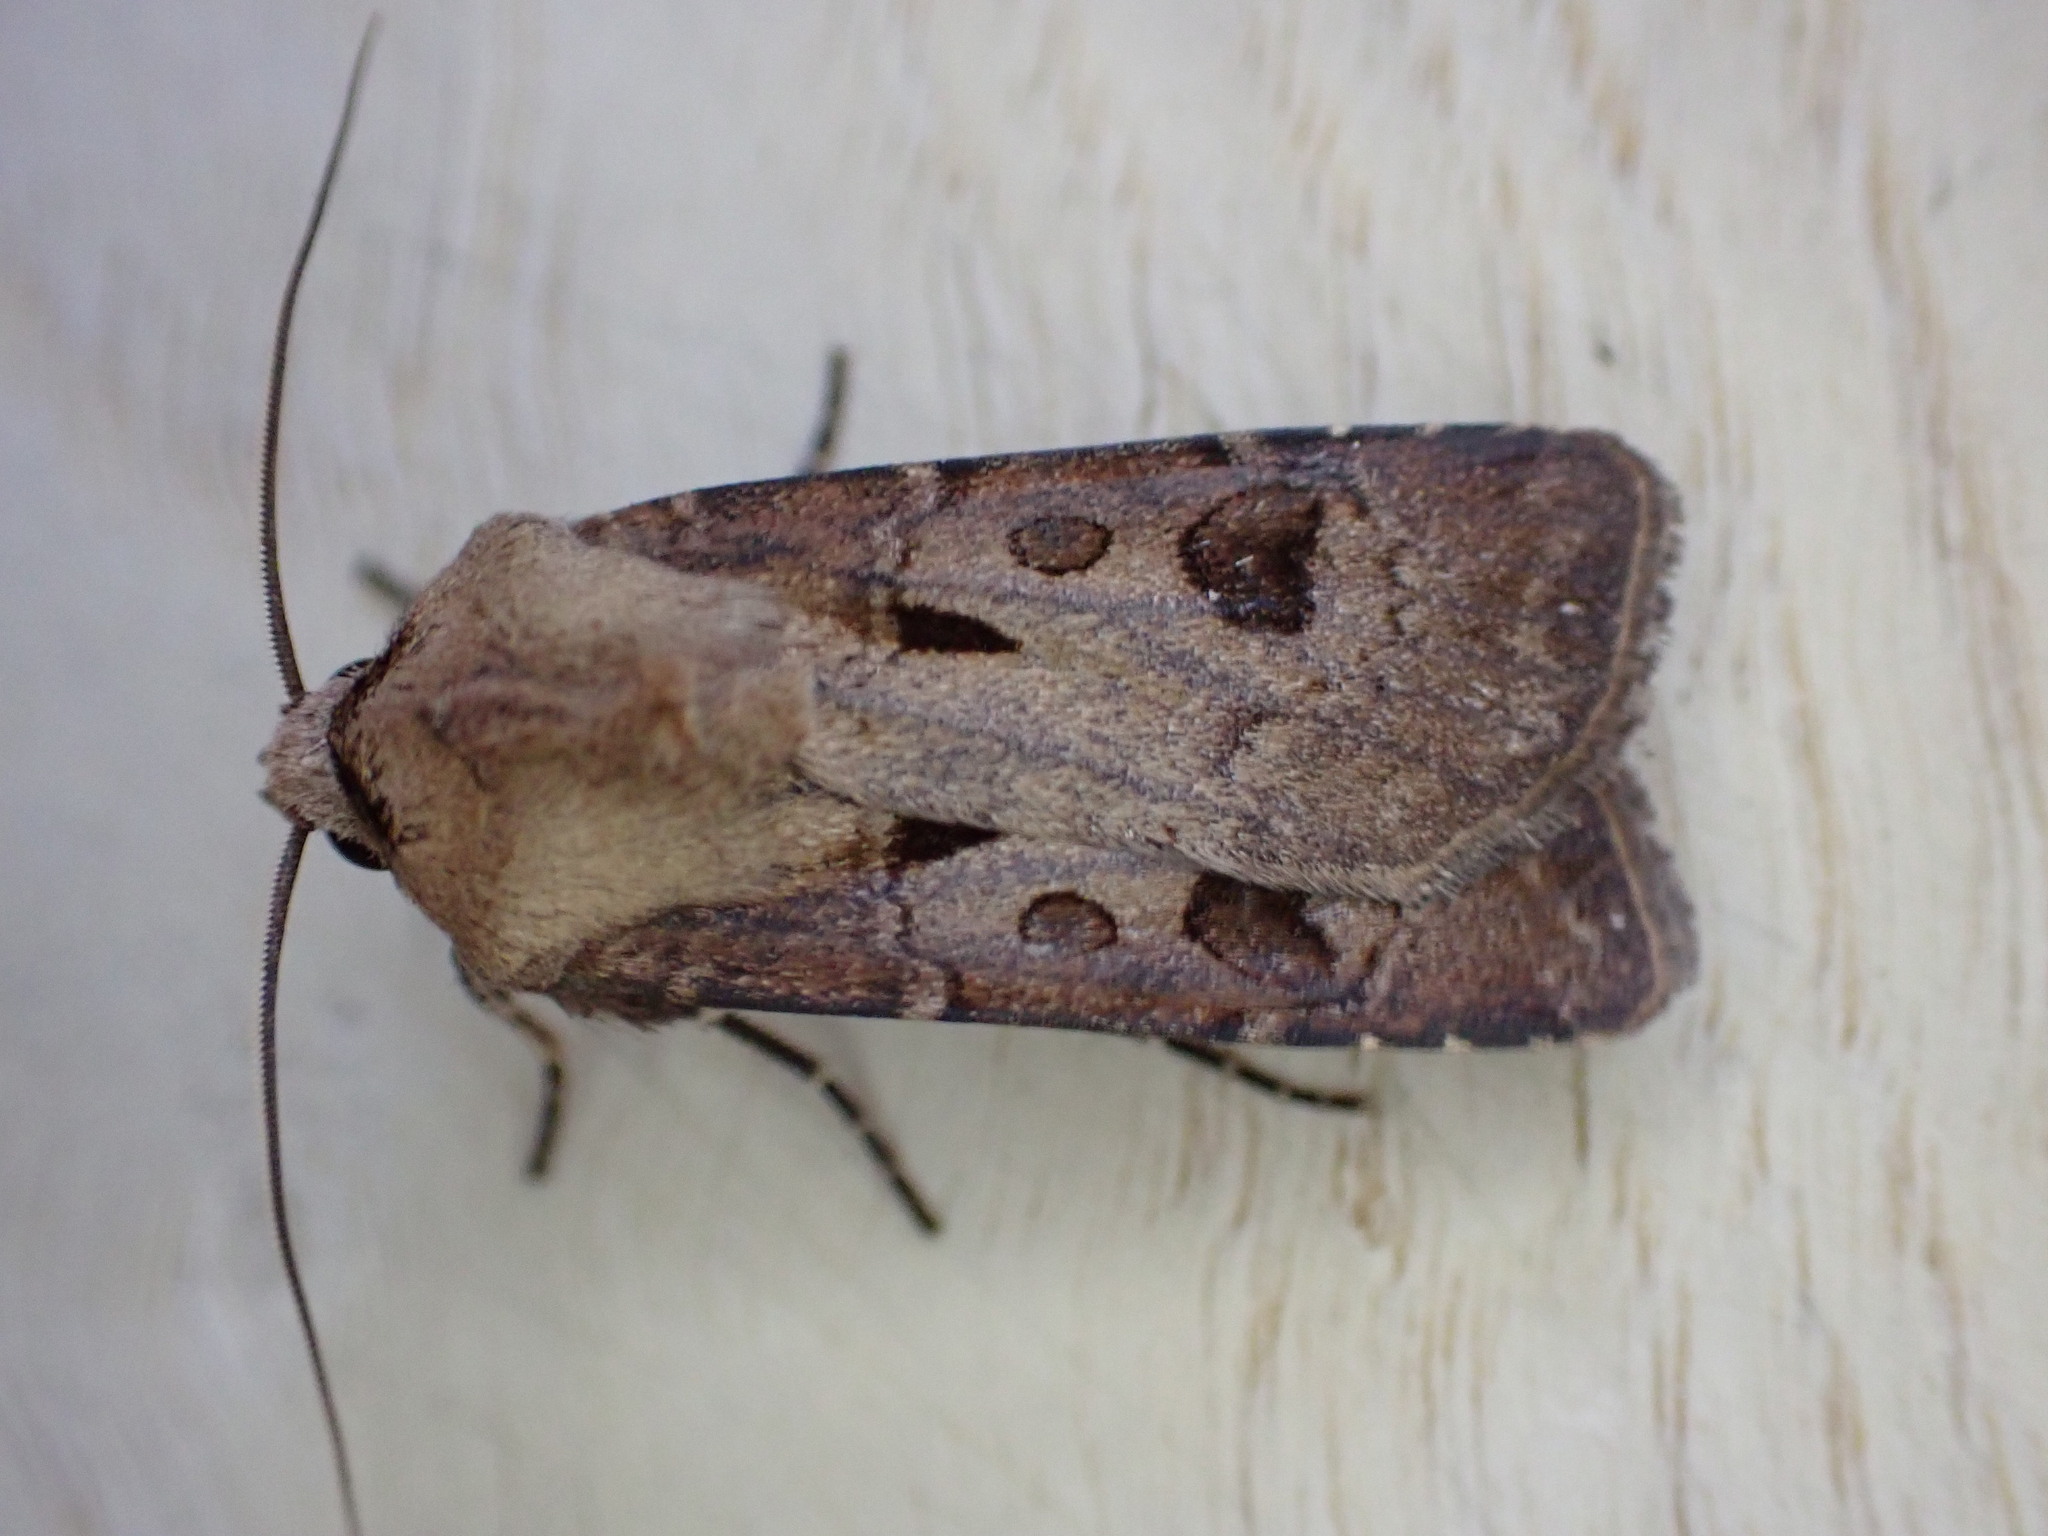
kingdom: Animalia
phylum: Arthropoda
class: Insecta
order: Lepidoptera
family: Noctuidae
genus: Agrotis
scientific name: Agrotis exclamationis
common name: Heart and dart
